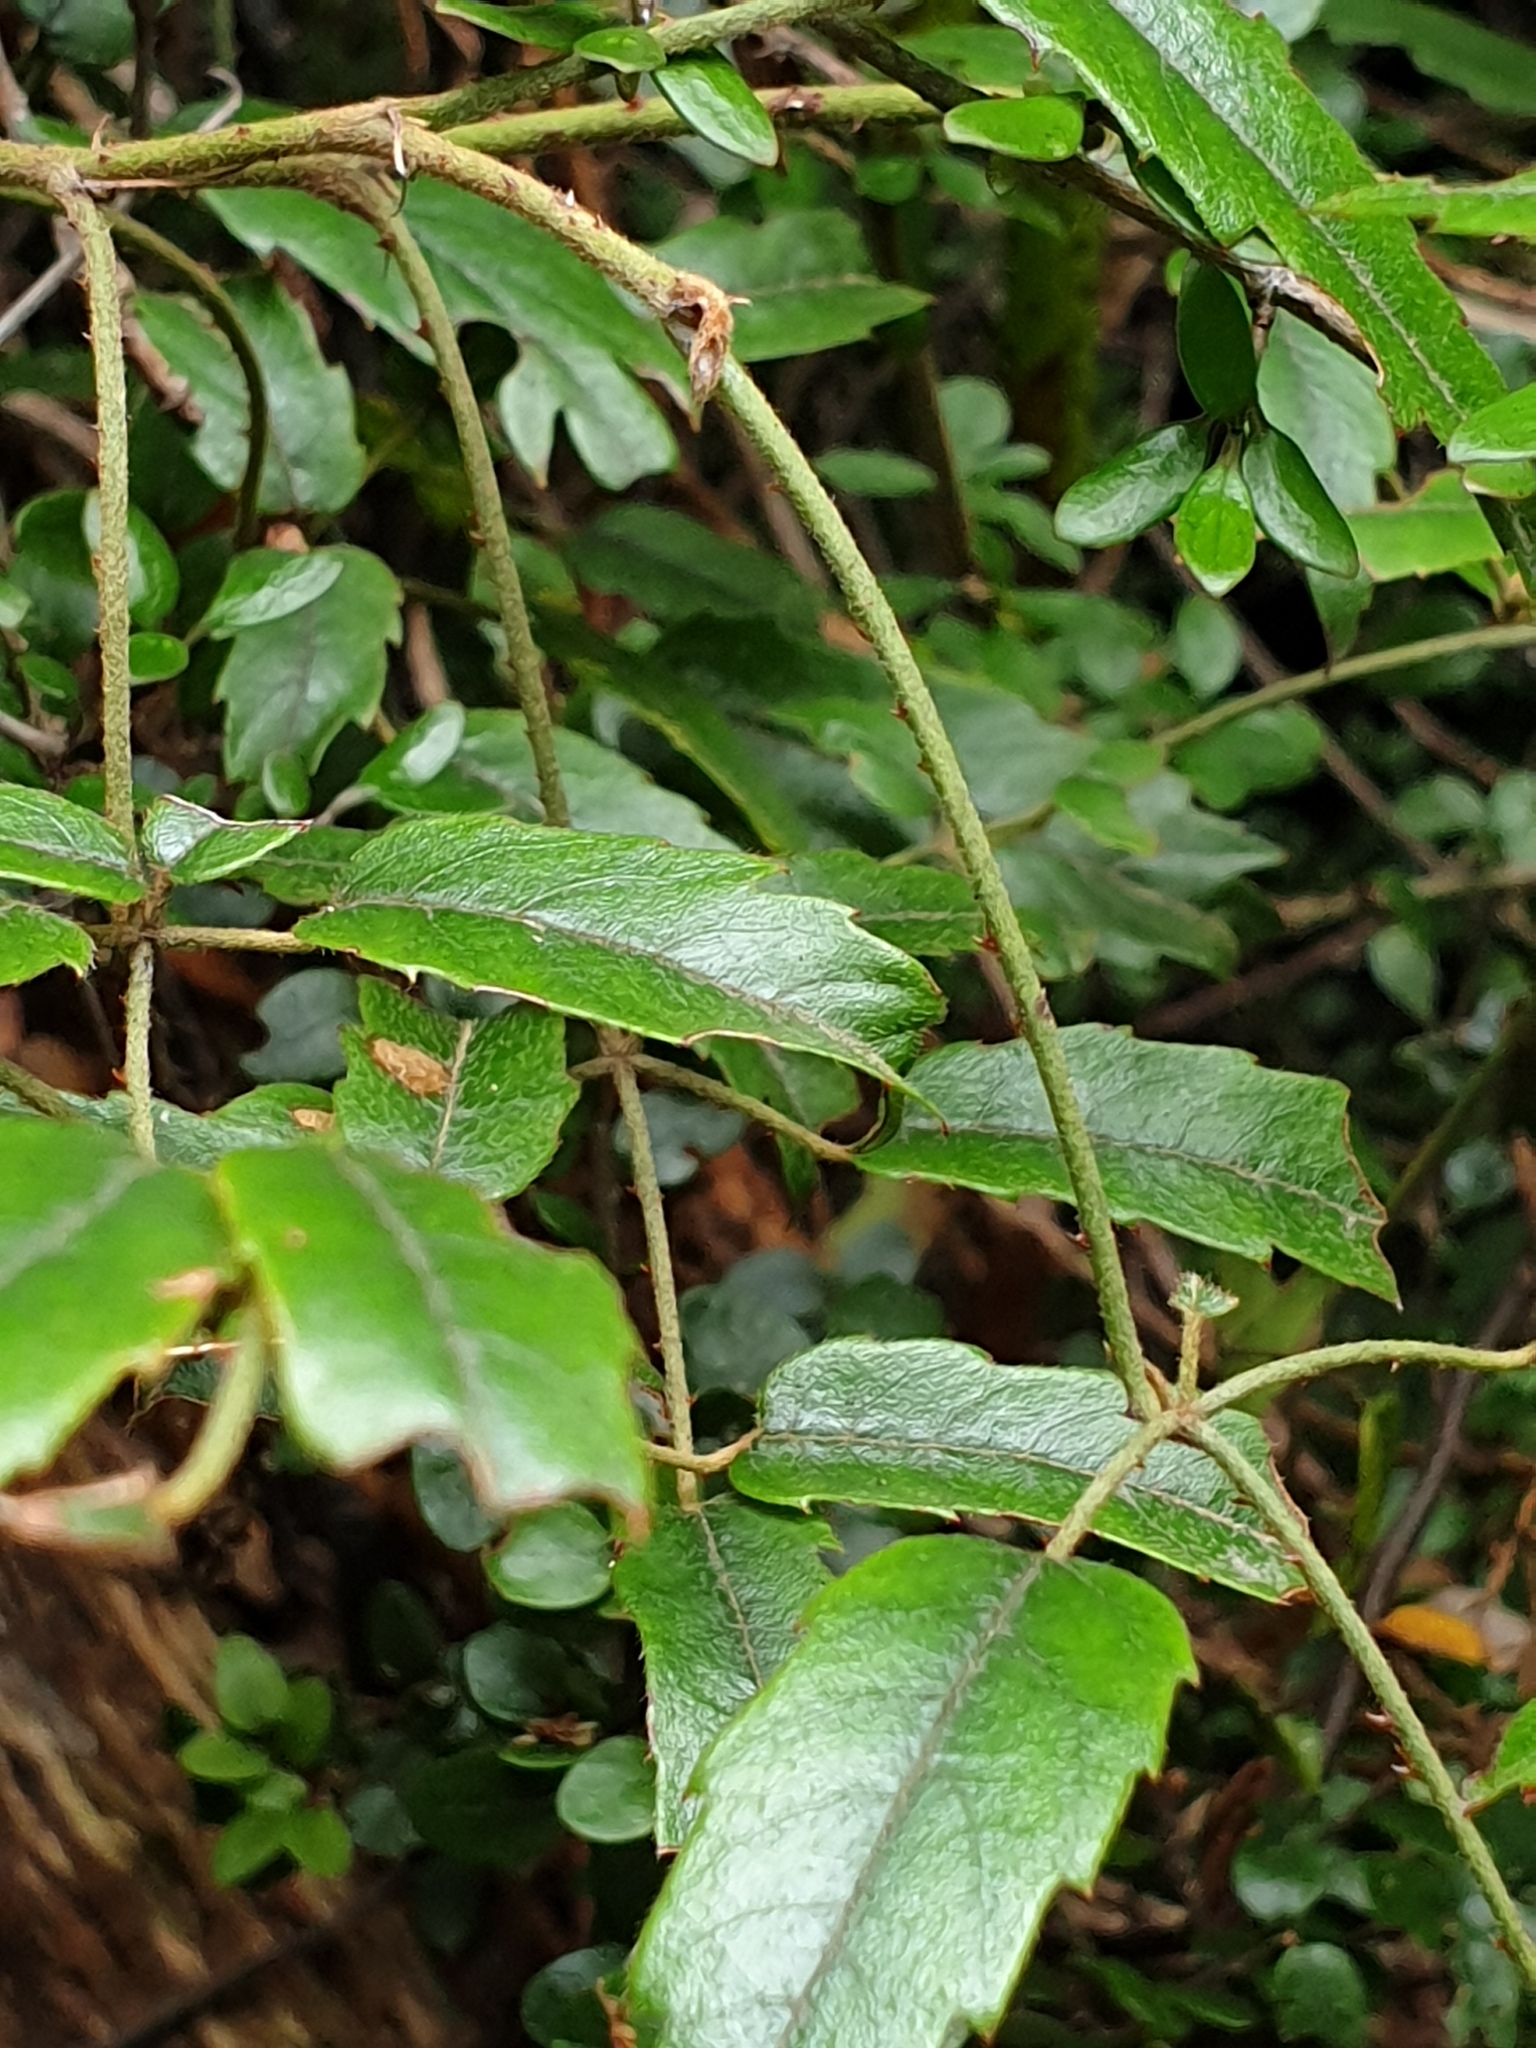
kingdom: Plantae
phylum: Tracheophyta
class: Magnoliopsida
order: Rosales
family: Rosaceae
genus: Rubus
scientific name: Rubus schmidelioides
